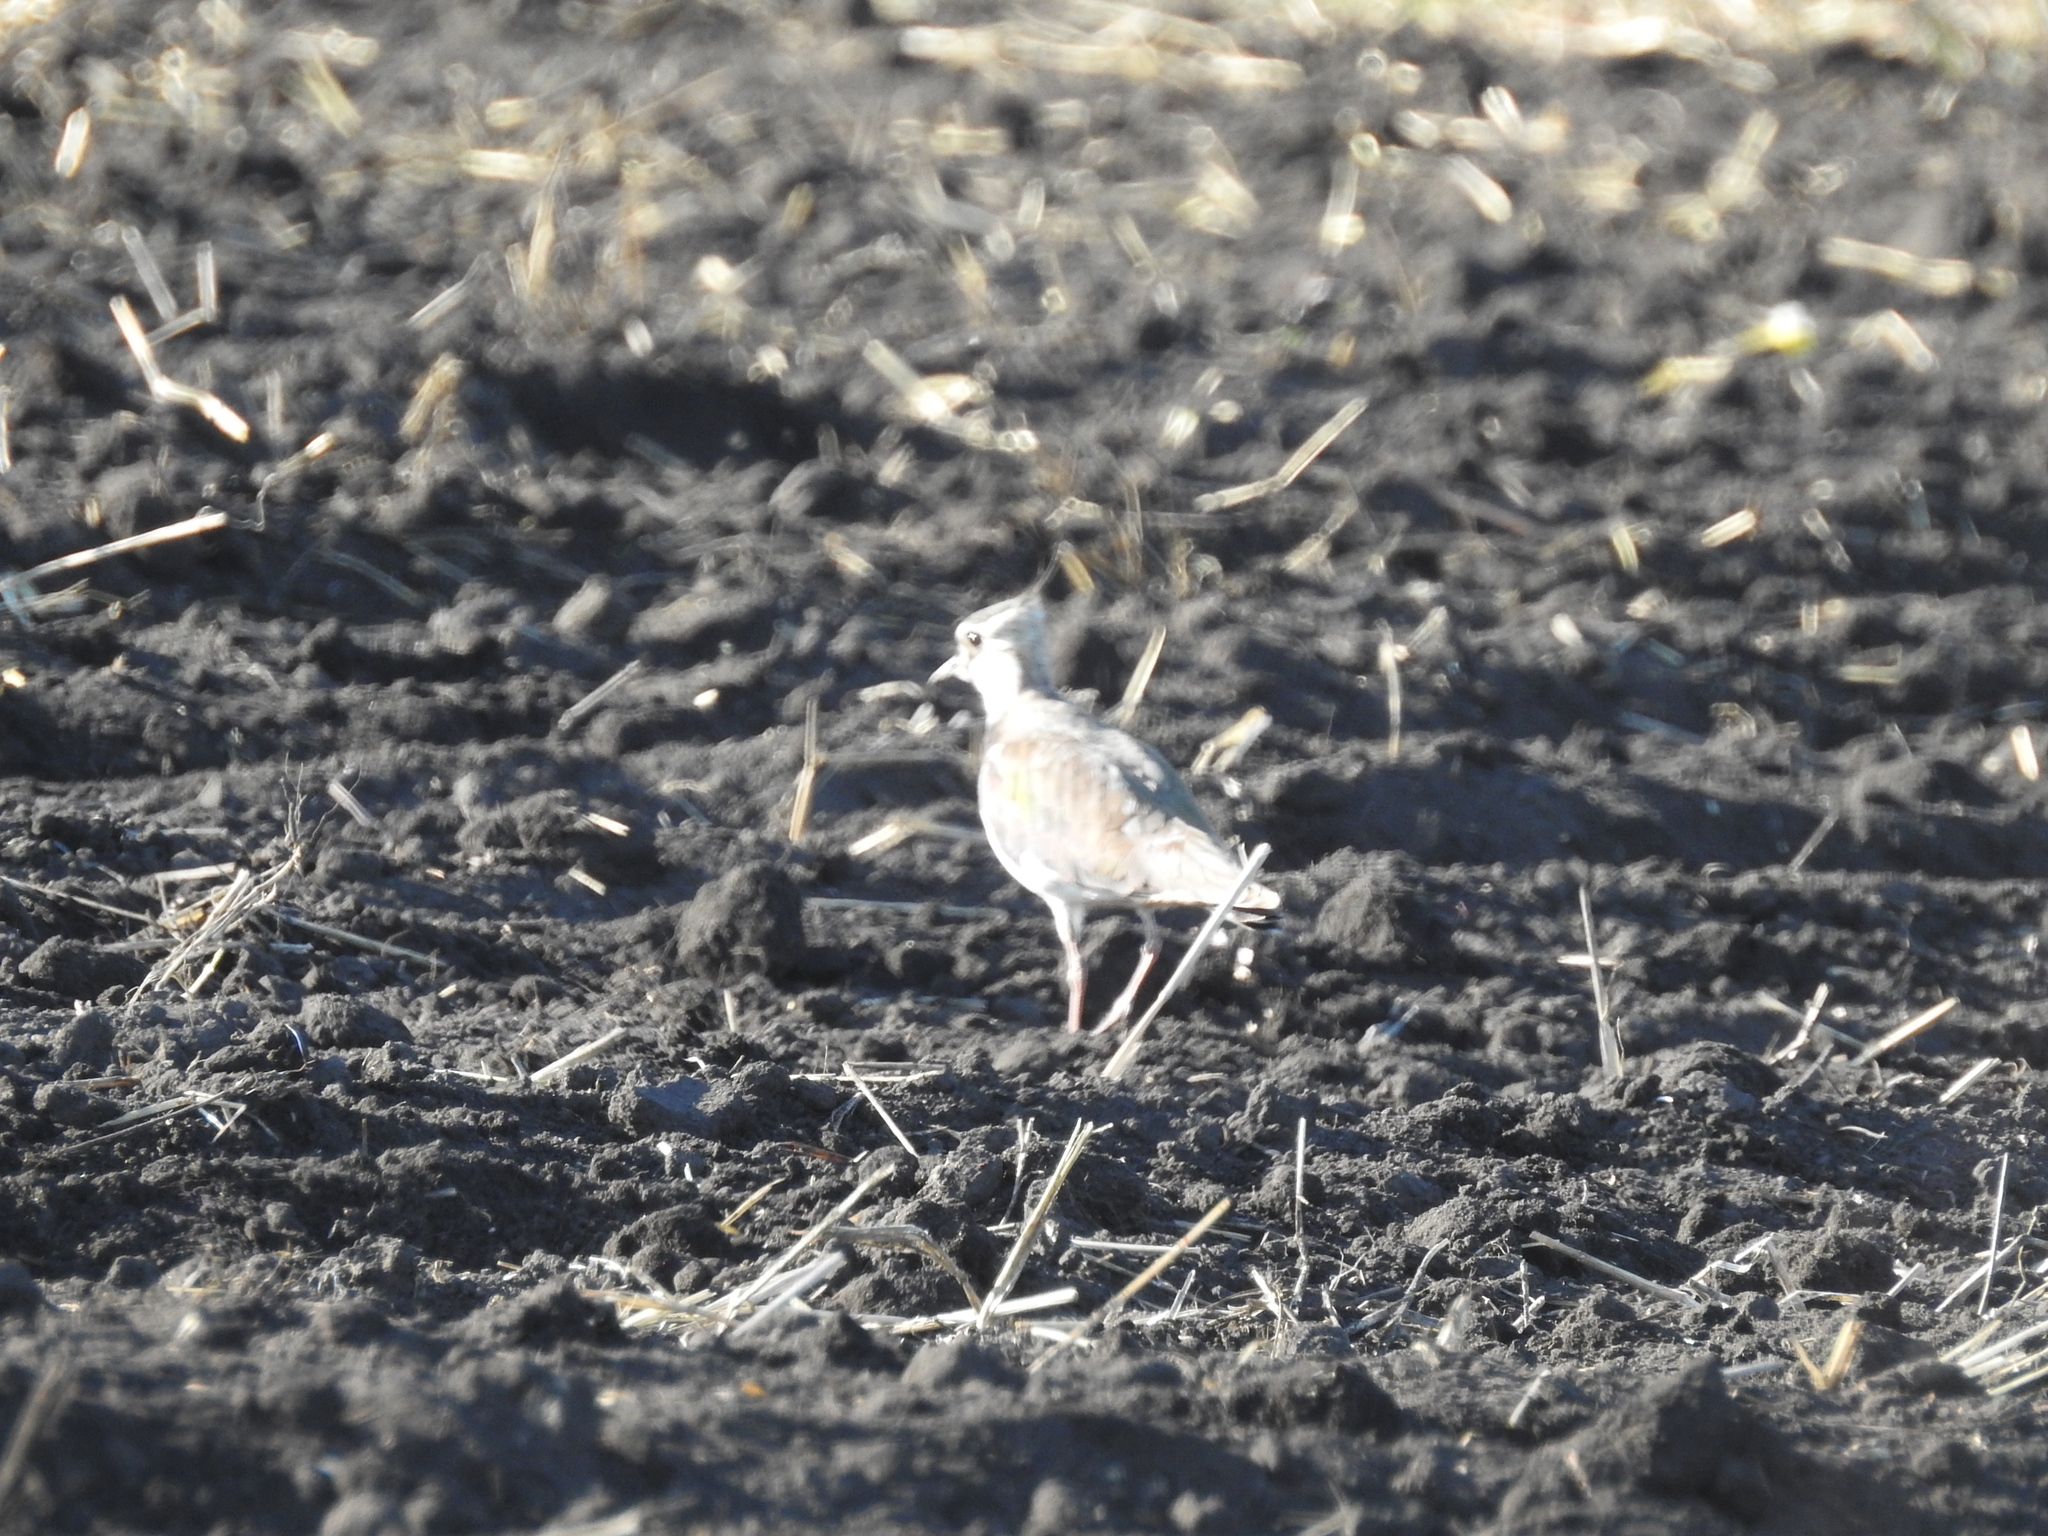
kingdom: Animalia
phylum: Chordata
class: Aves
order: Charadriiformes
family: Charadriidae
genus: Vanellus
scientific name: Vanellus vanellus
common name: Northern lapwing
